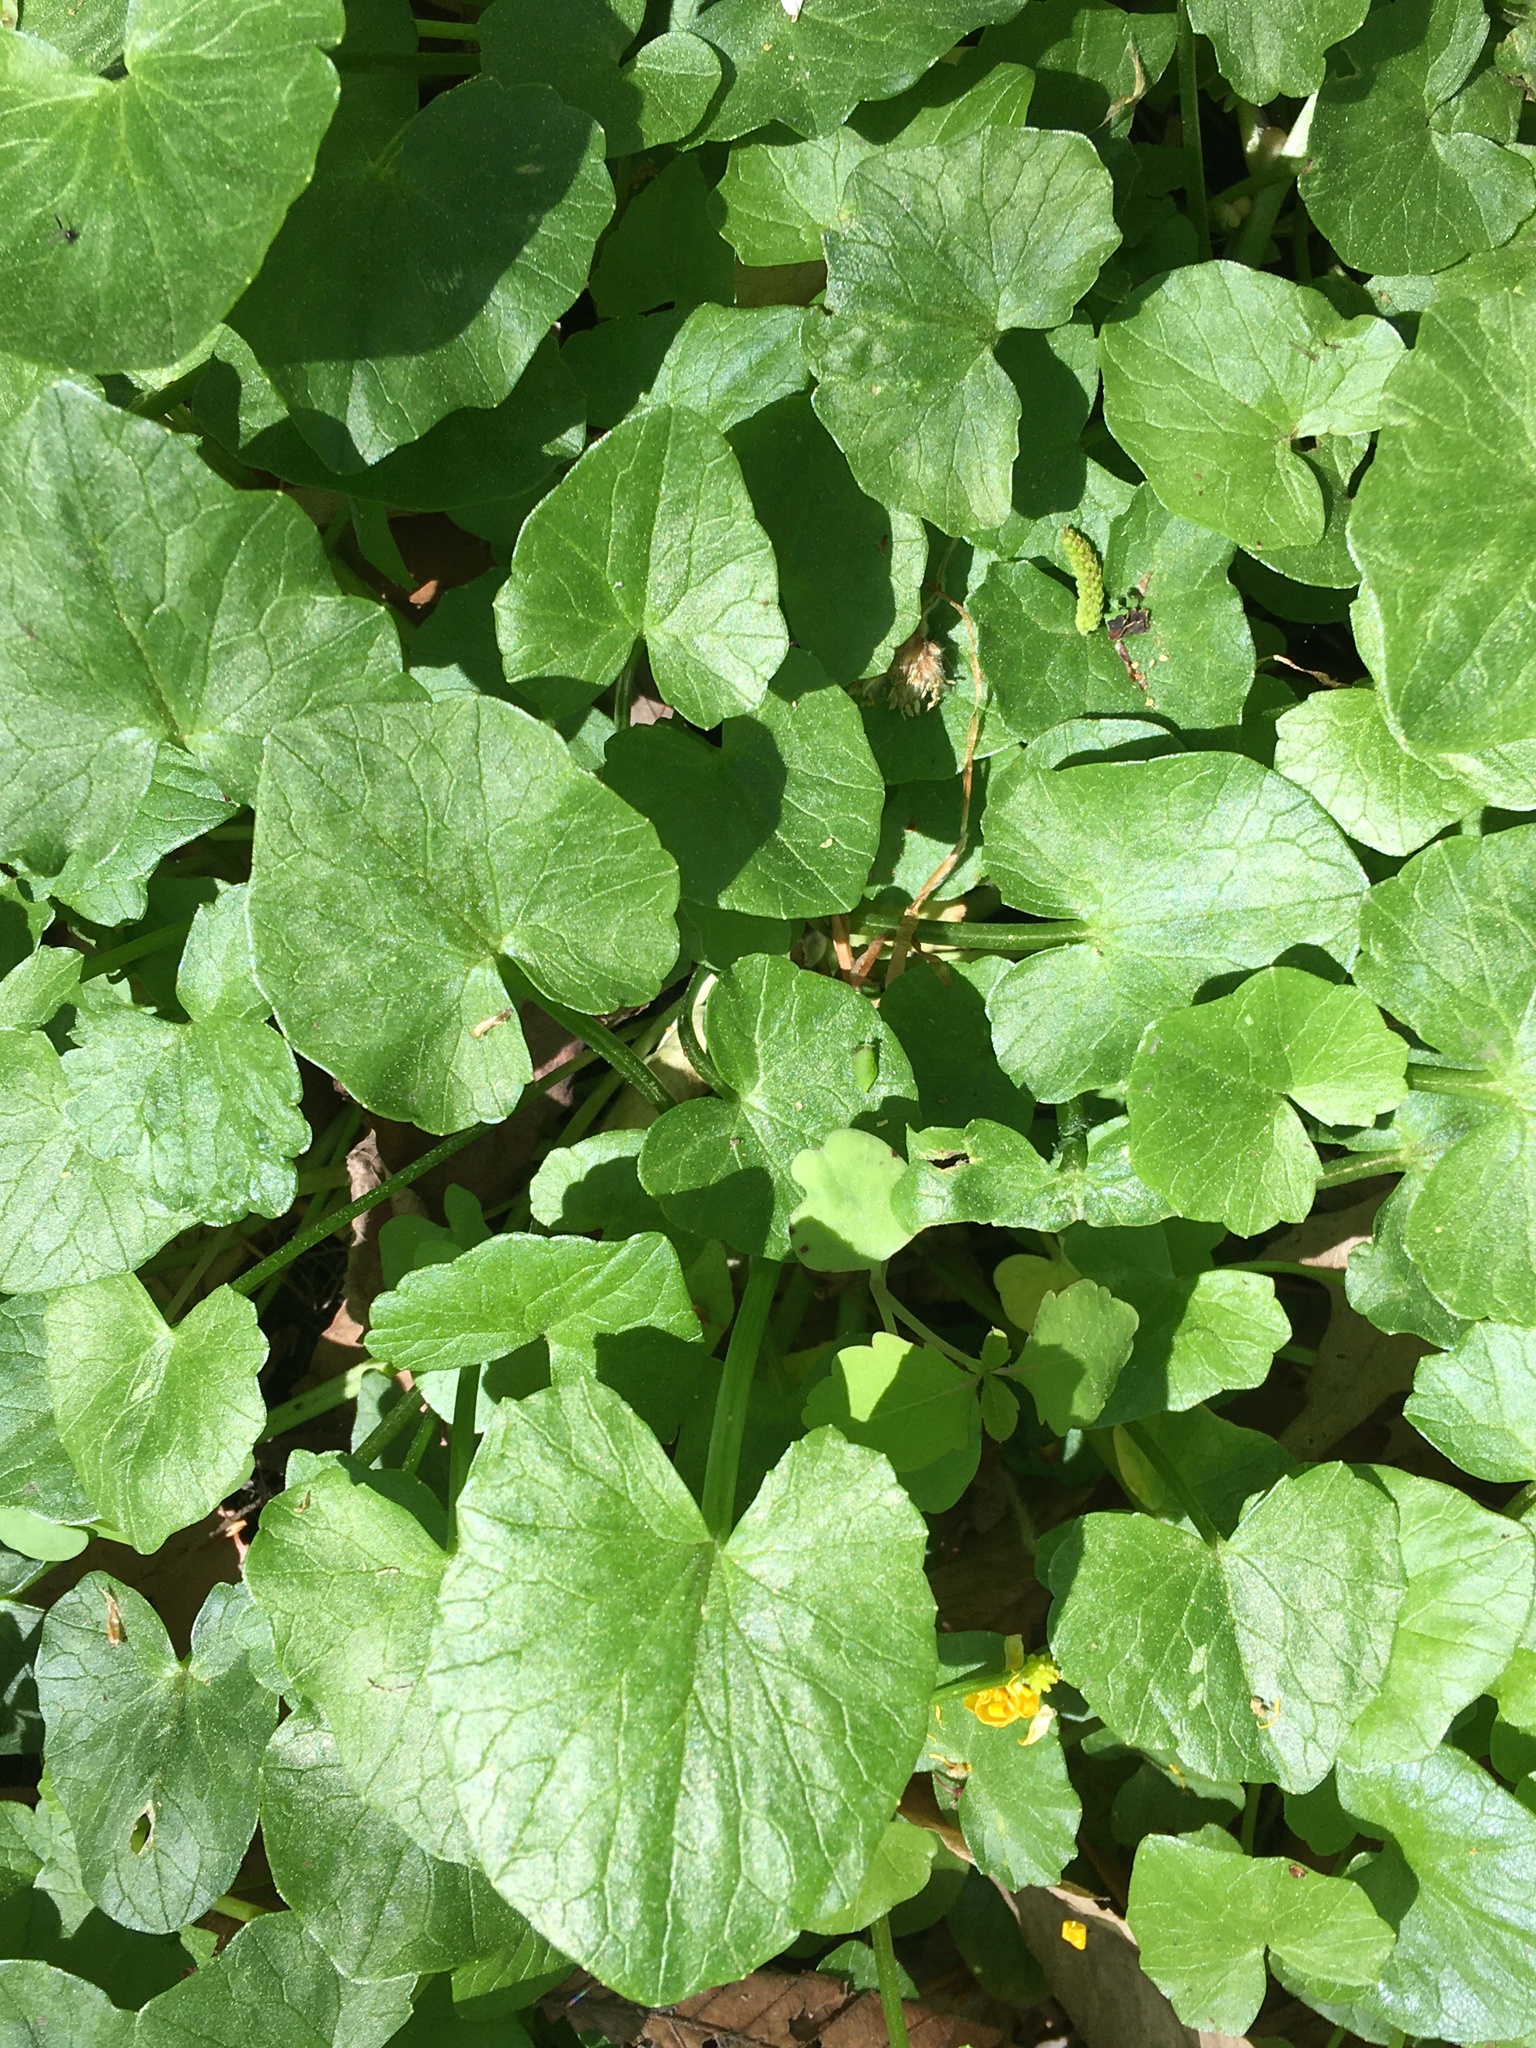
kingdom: Plantae
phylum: Tracheophyta
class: Magnoliopsida
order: Ranunculales
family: Ranunculaceae
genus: Ficaria
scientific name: Ficaria verna
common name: Lesser celandine
